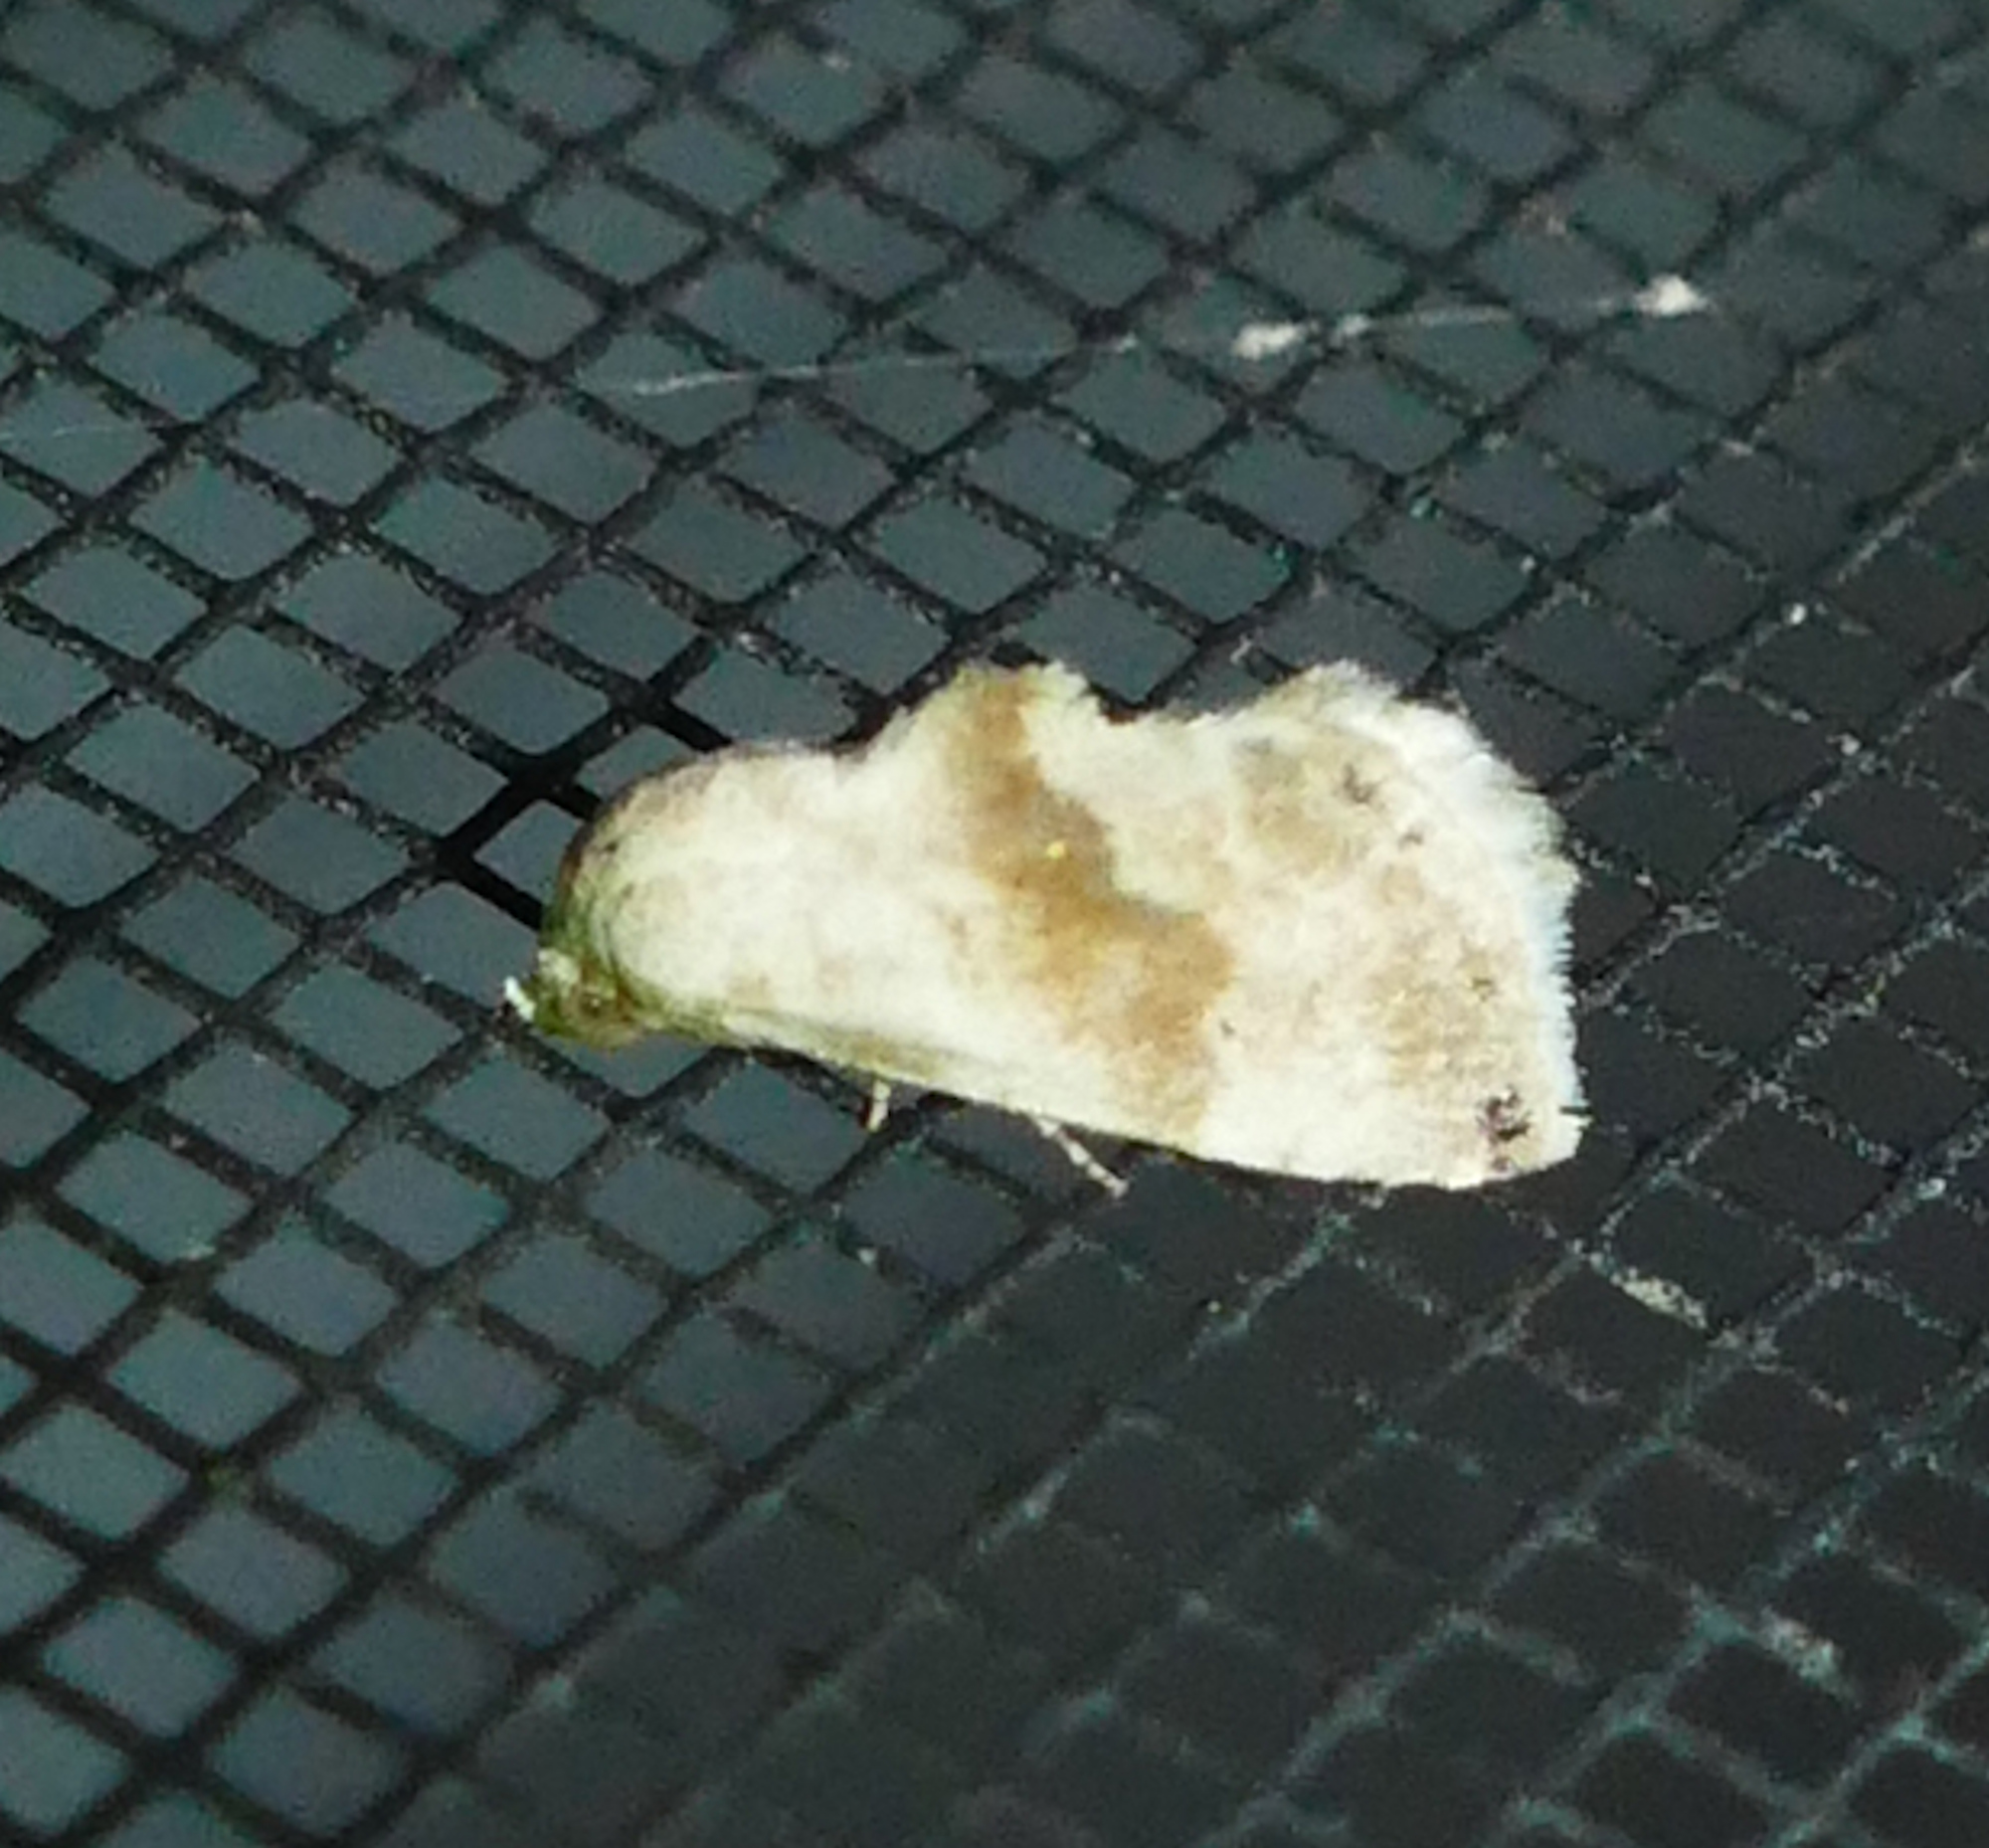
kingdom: Animalia
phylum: Arthropoda
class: Insecta
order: Lepidoptera
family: Noctuidae
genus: Eublemma
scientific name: Eublemma minima
